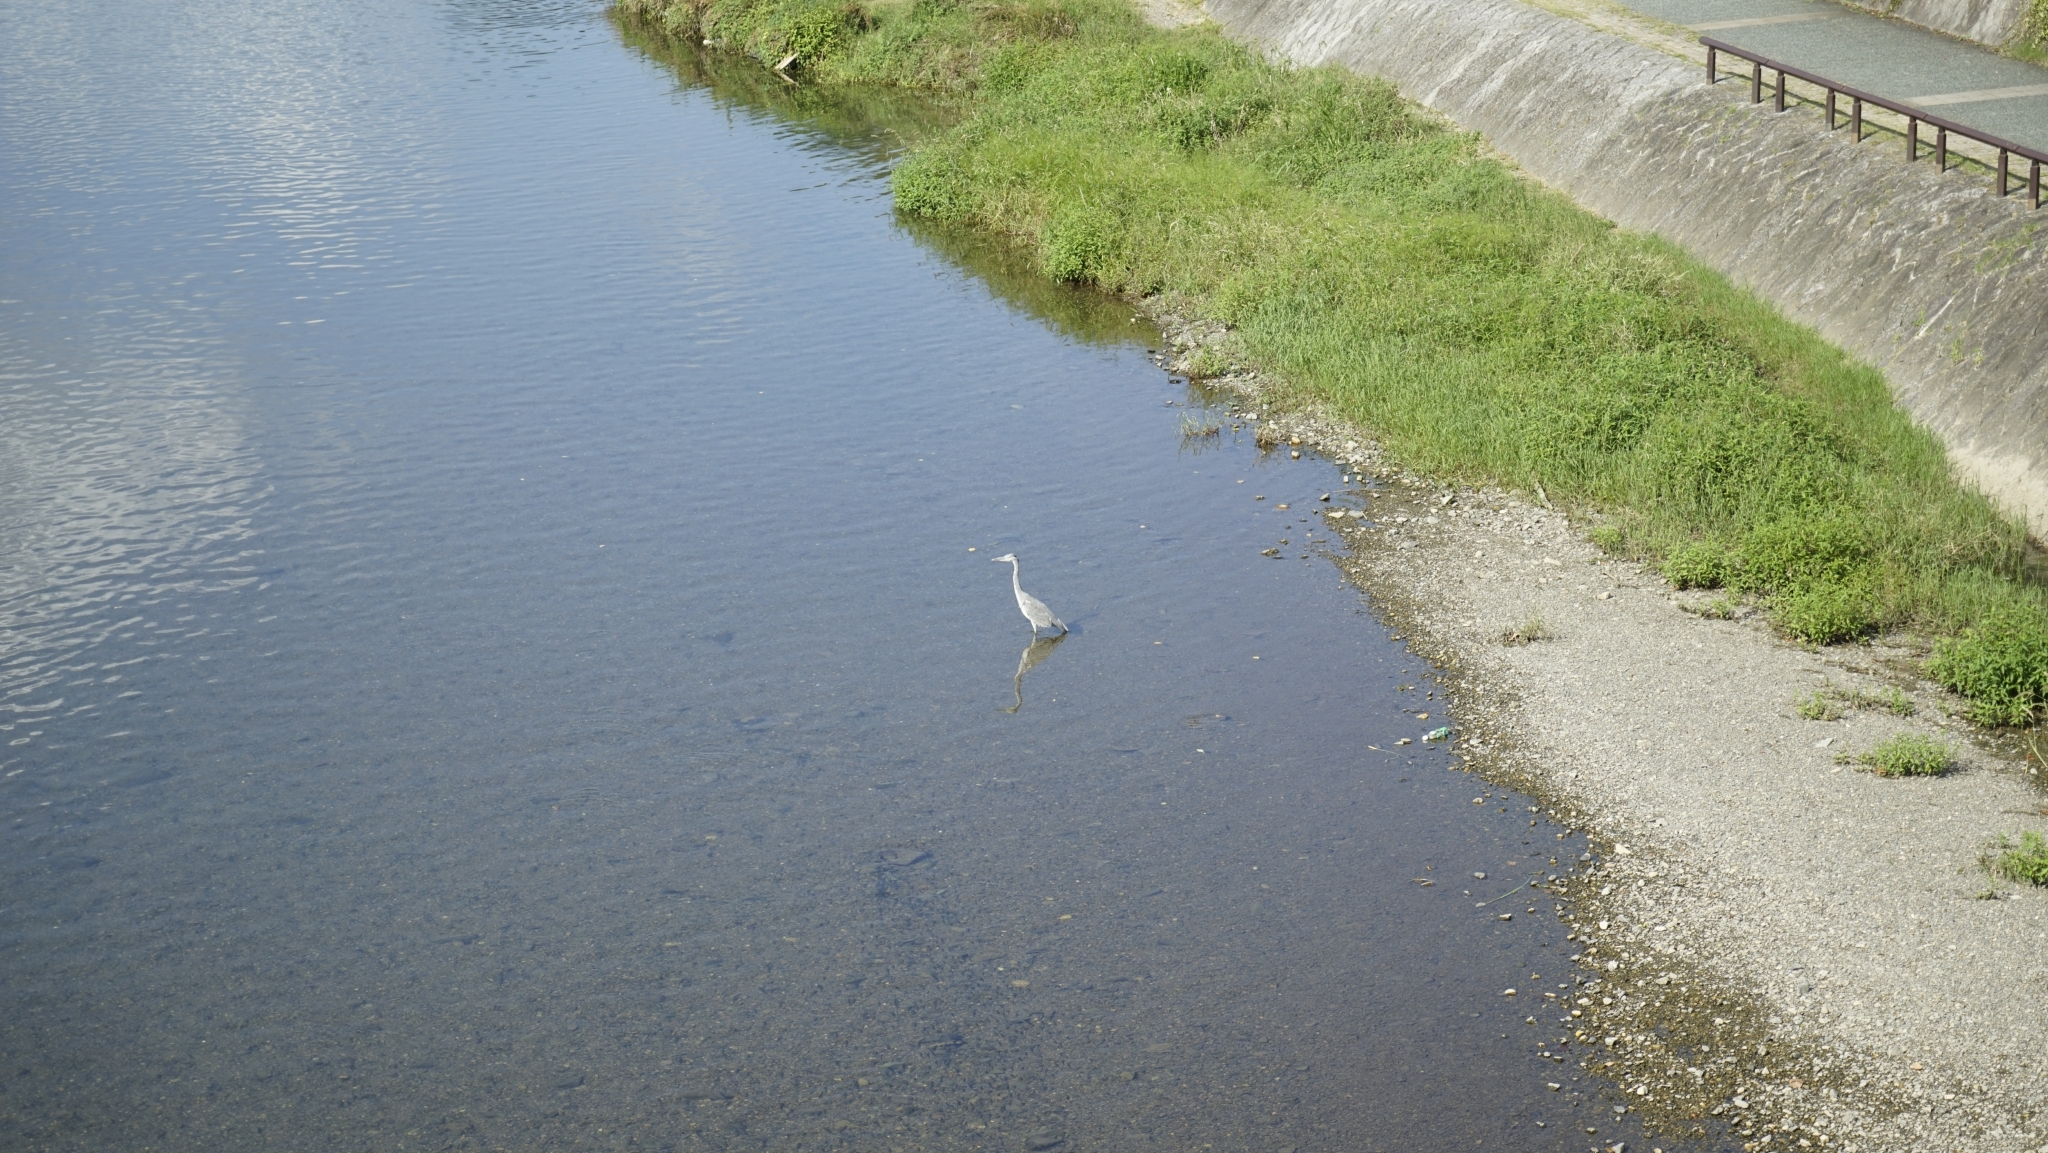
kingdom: Animalia
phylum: Chordata
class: Aves
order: Pelecaniformes
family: Ardeidae
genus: Ardea
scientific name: Ardea cinerea
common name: Grey heron
